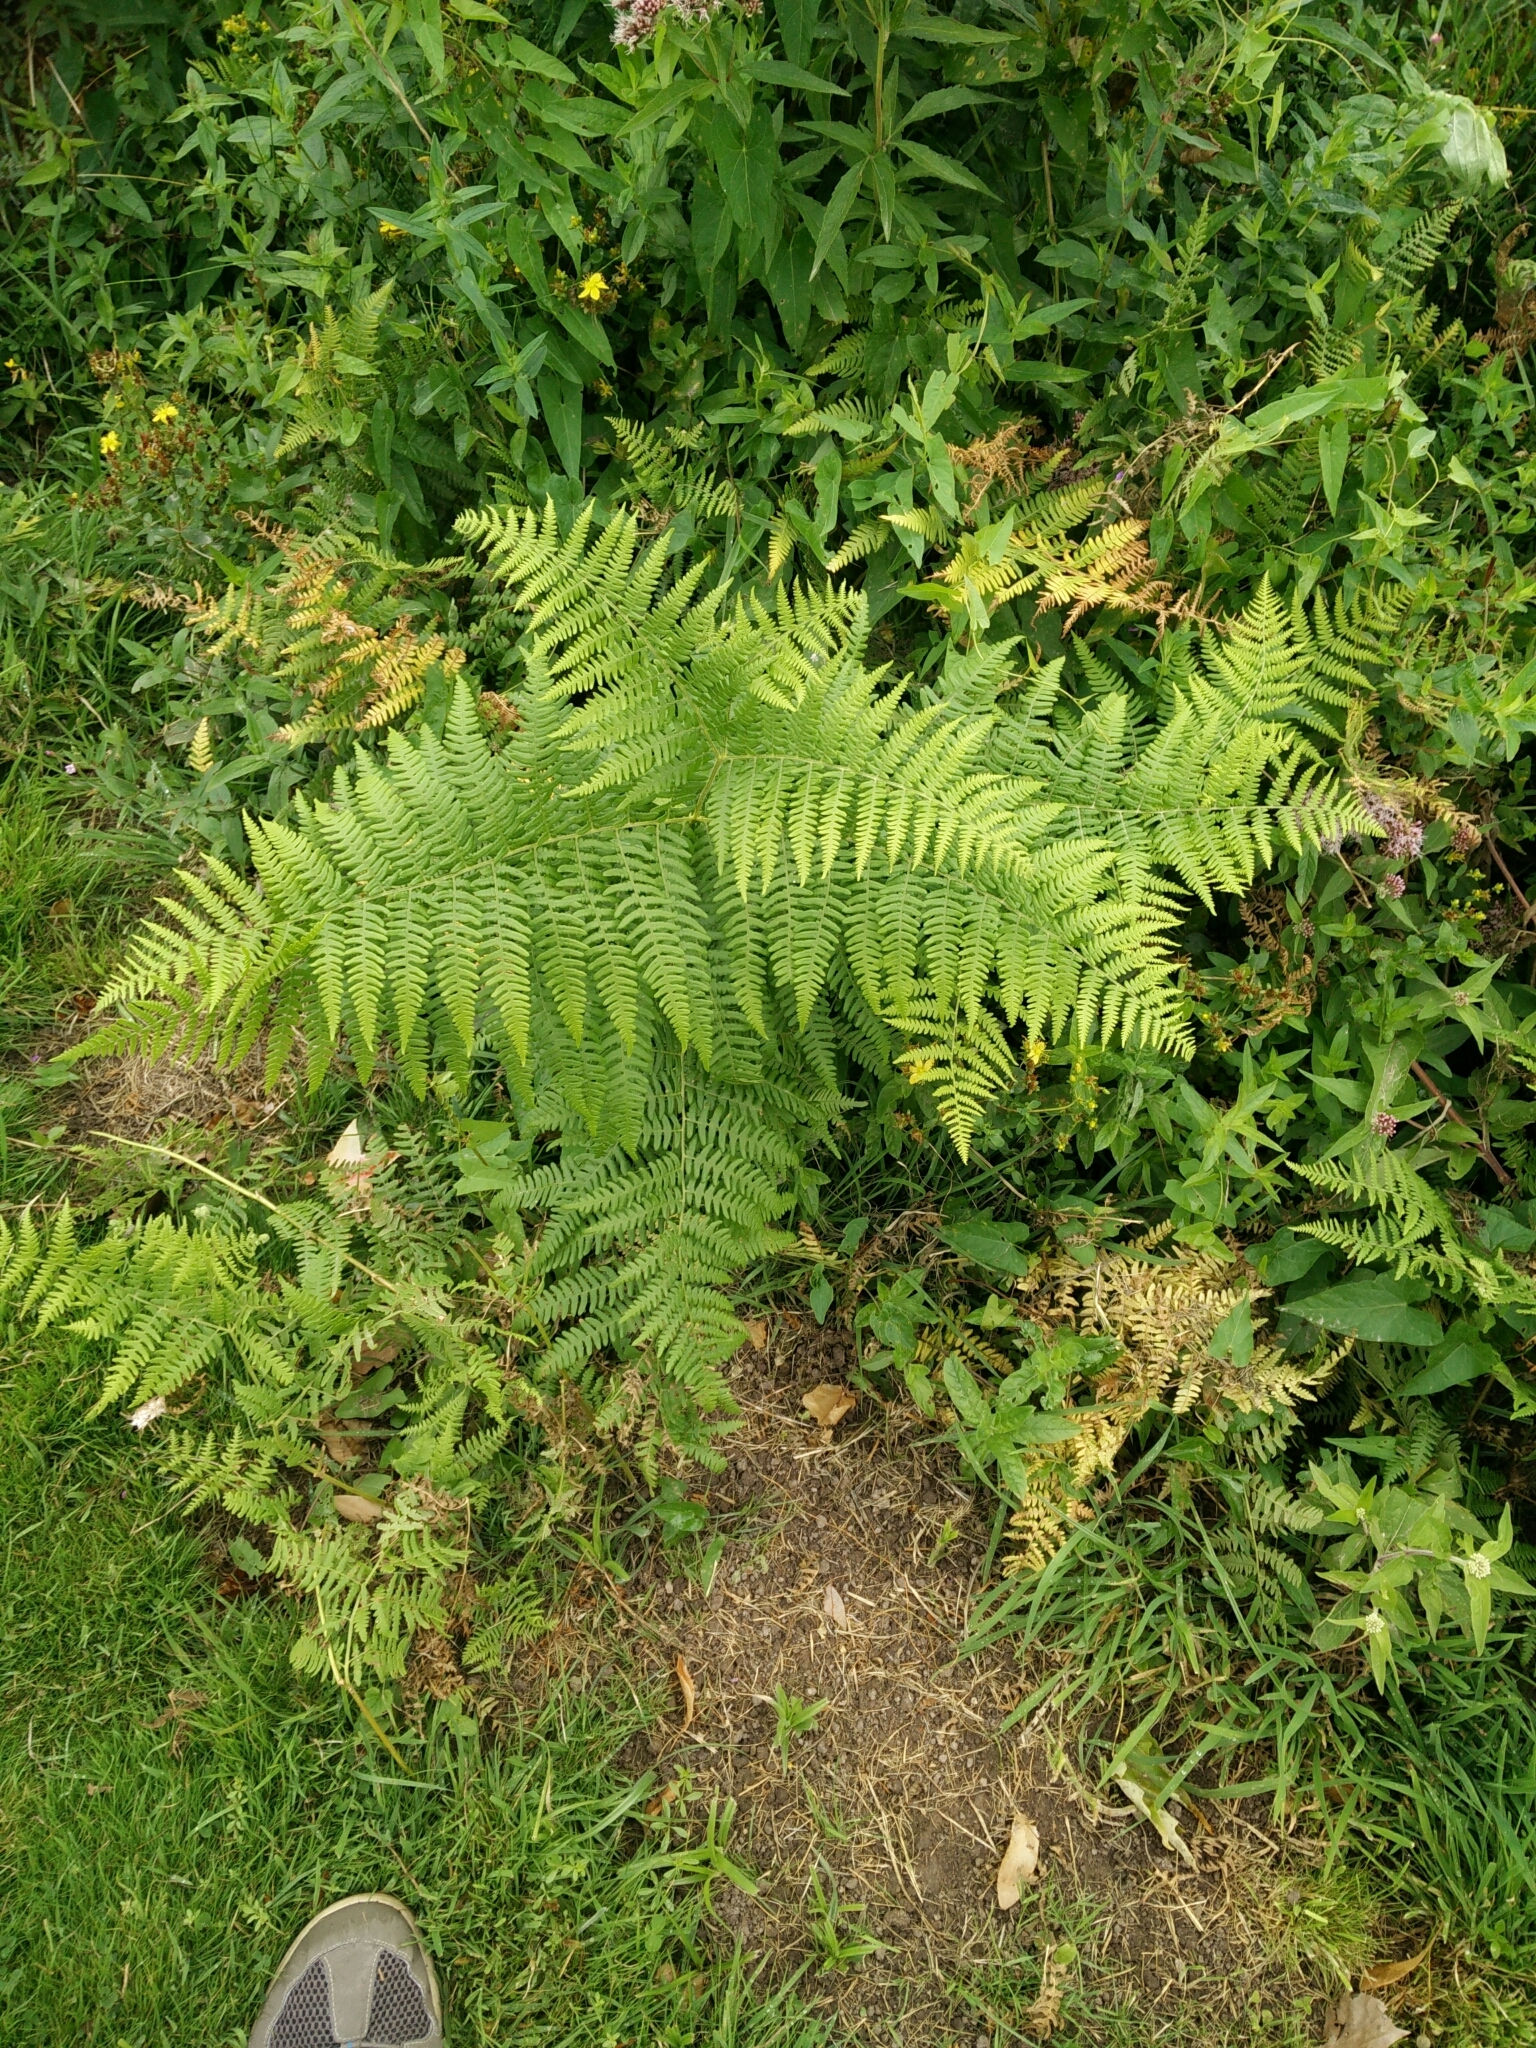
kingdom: Plantae
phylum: Tracheophyta
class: Polypodiopsida
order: Polypodiales
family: Dennstaedtiaceae
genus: Pteridium
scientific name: Pteridium aquilinum
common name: Bracken
